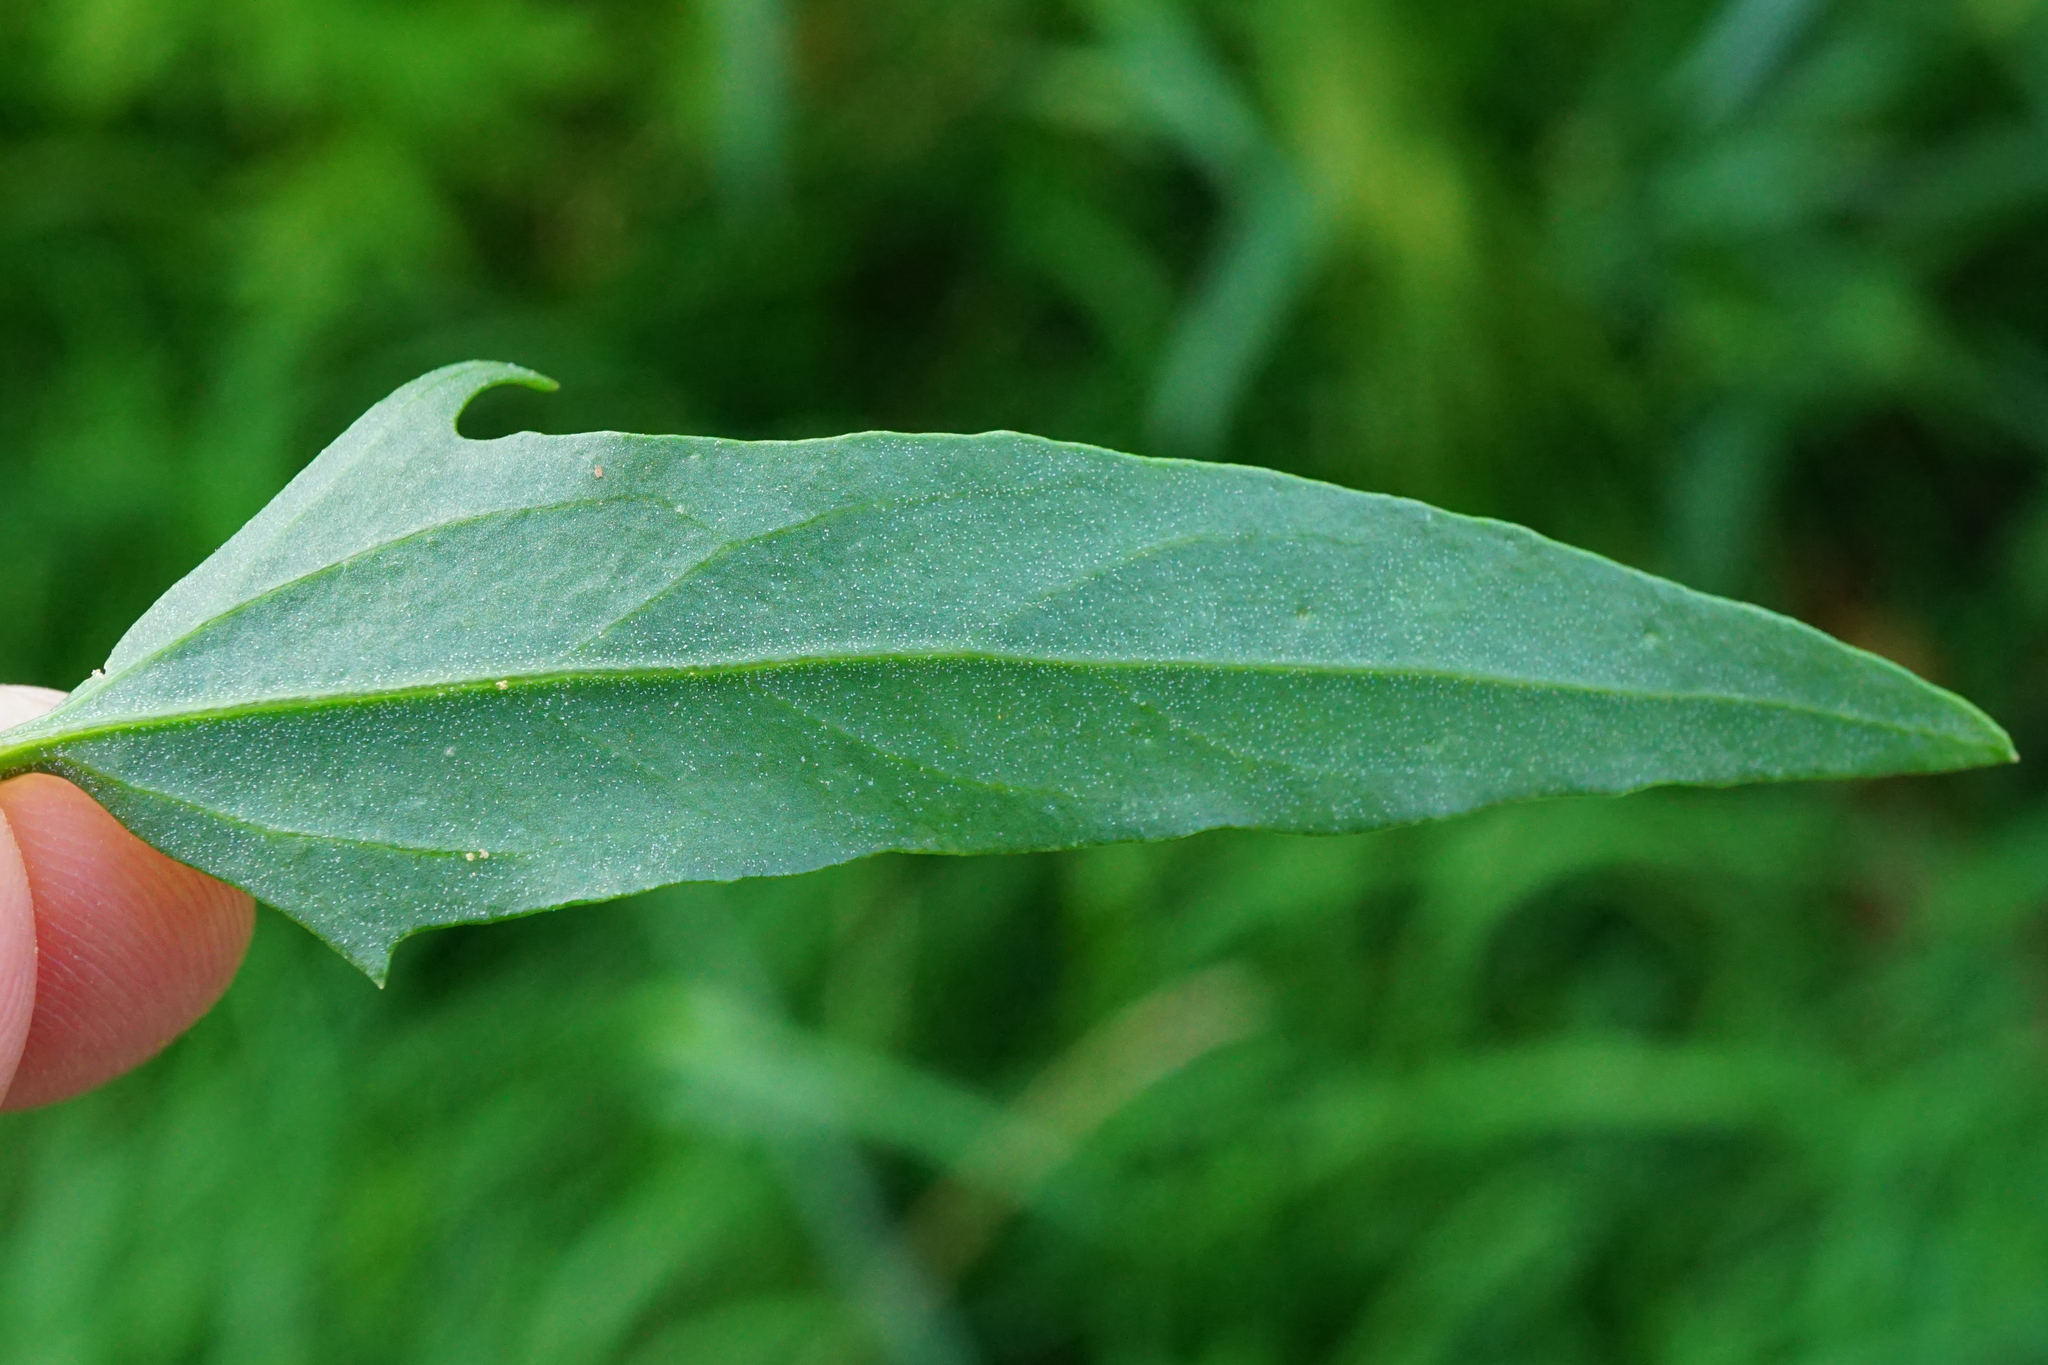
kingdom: Plantae
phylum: Tracheophyta
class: Magnoliopsida
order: Caryophyllales
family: Amaranthaceae
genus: Atriplex
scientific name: Atriplex patula
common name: Common orache
